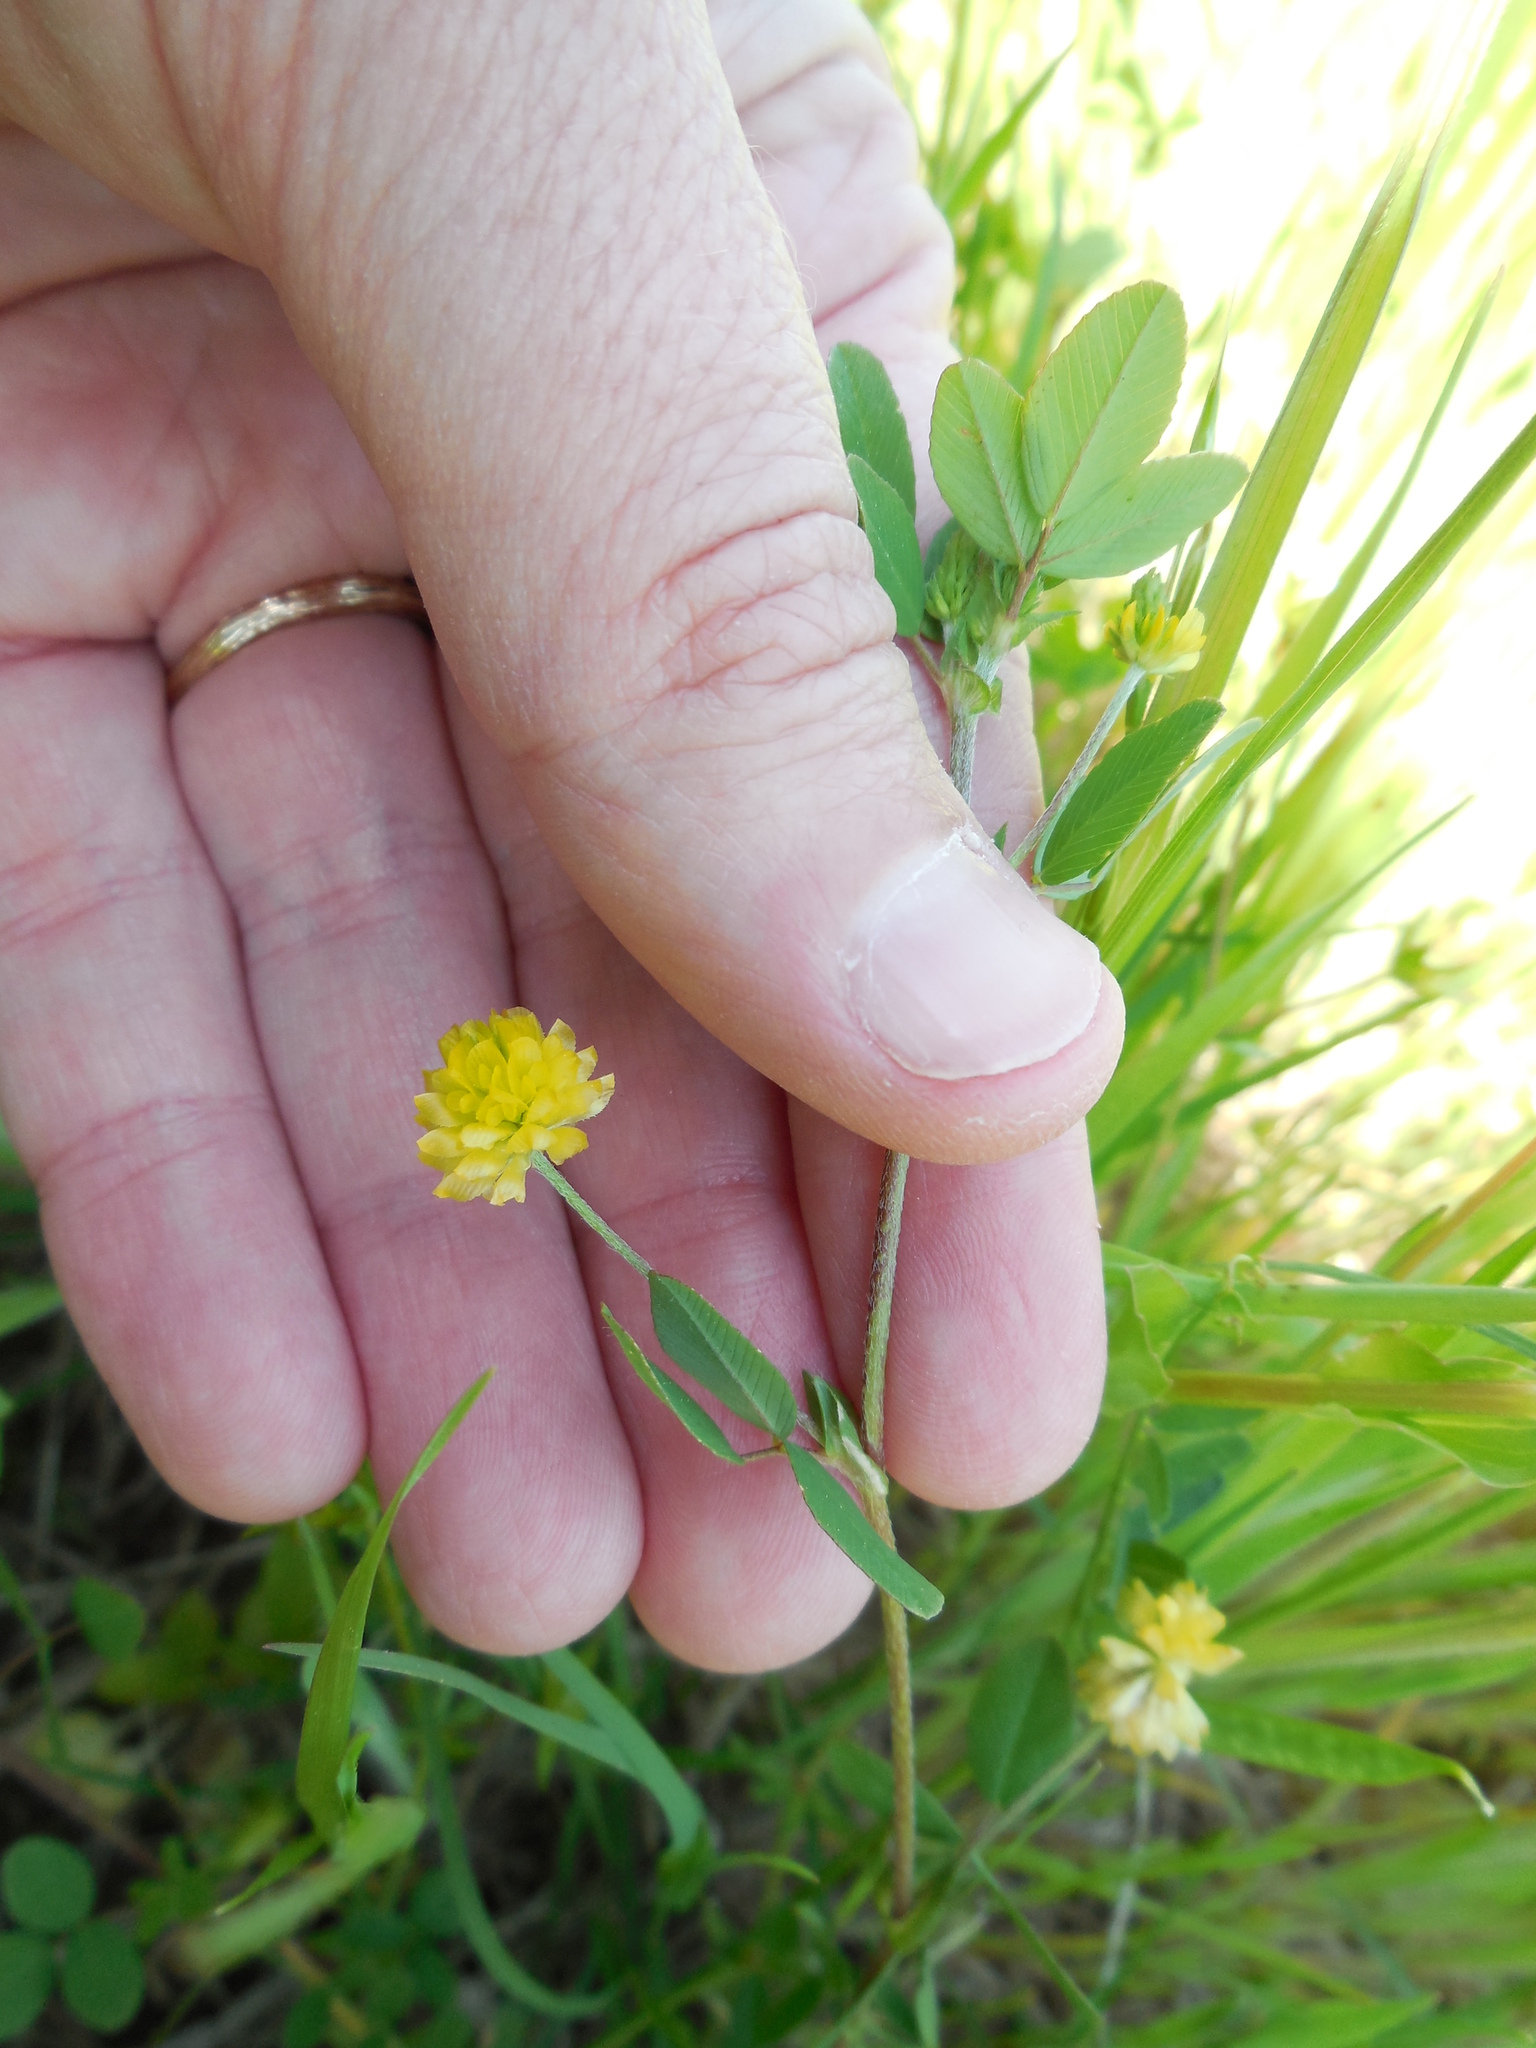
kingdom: Plantae
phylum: Tracheophyta
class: Magnoliopsida
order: Fabales
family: Fabaceae
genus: Trifolium
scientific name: Trifolium campestre
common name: Field clover
